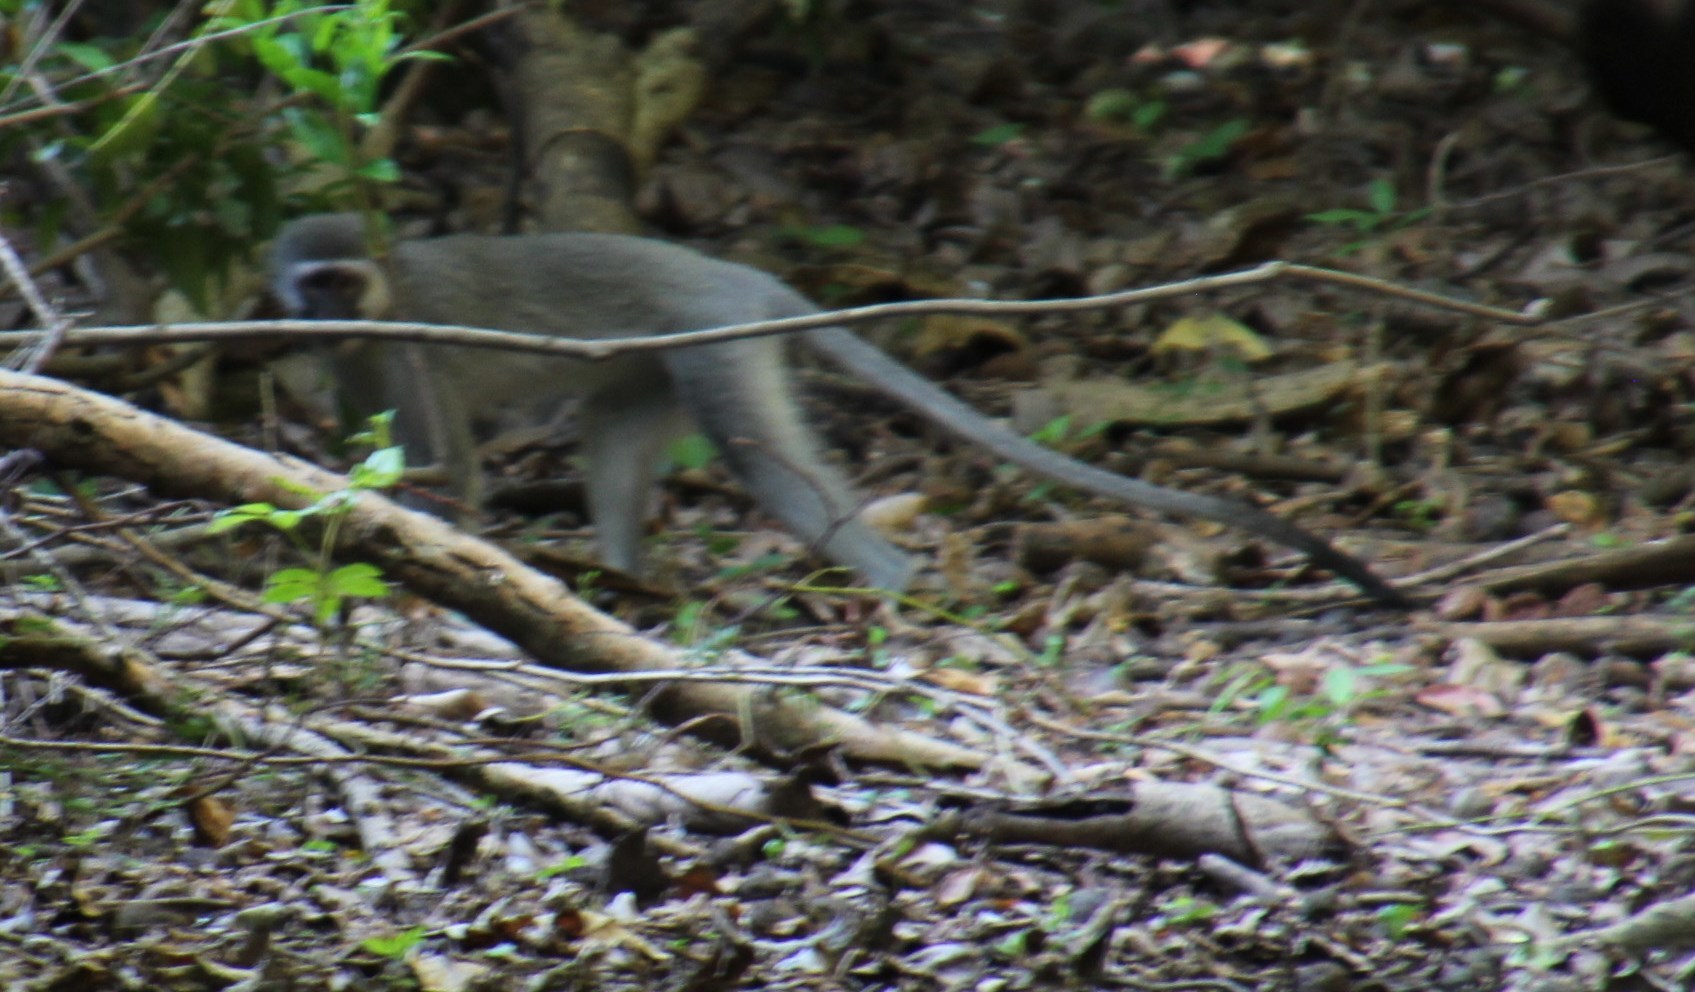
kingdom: Animalia
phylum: Chordata
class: Mammalia
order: Primates
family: Cercopithecidae
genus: Chlorocebus
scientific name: Chlorocebus pygerythrus
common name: Vervet monkey
